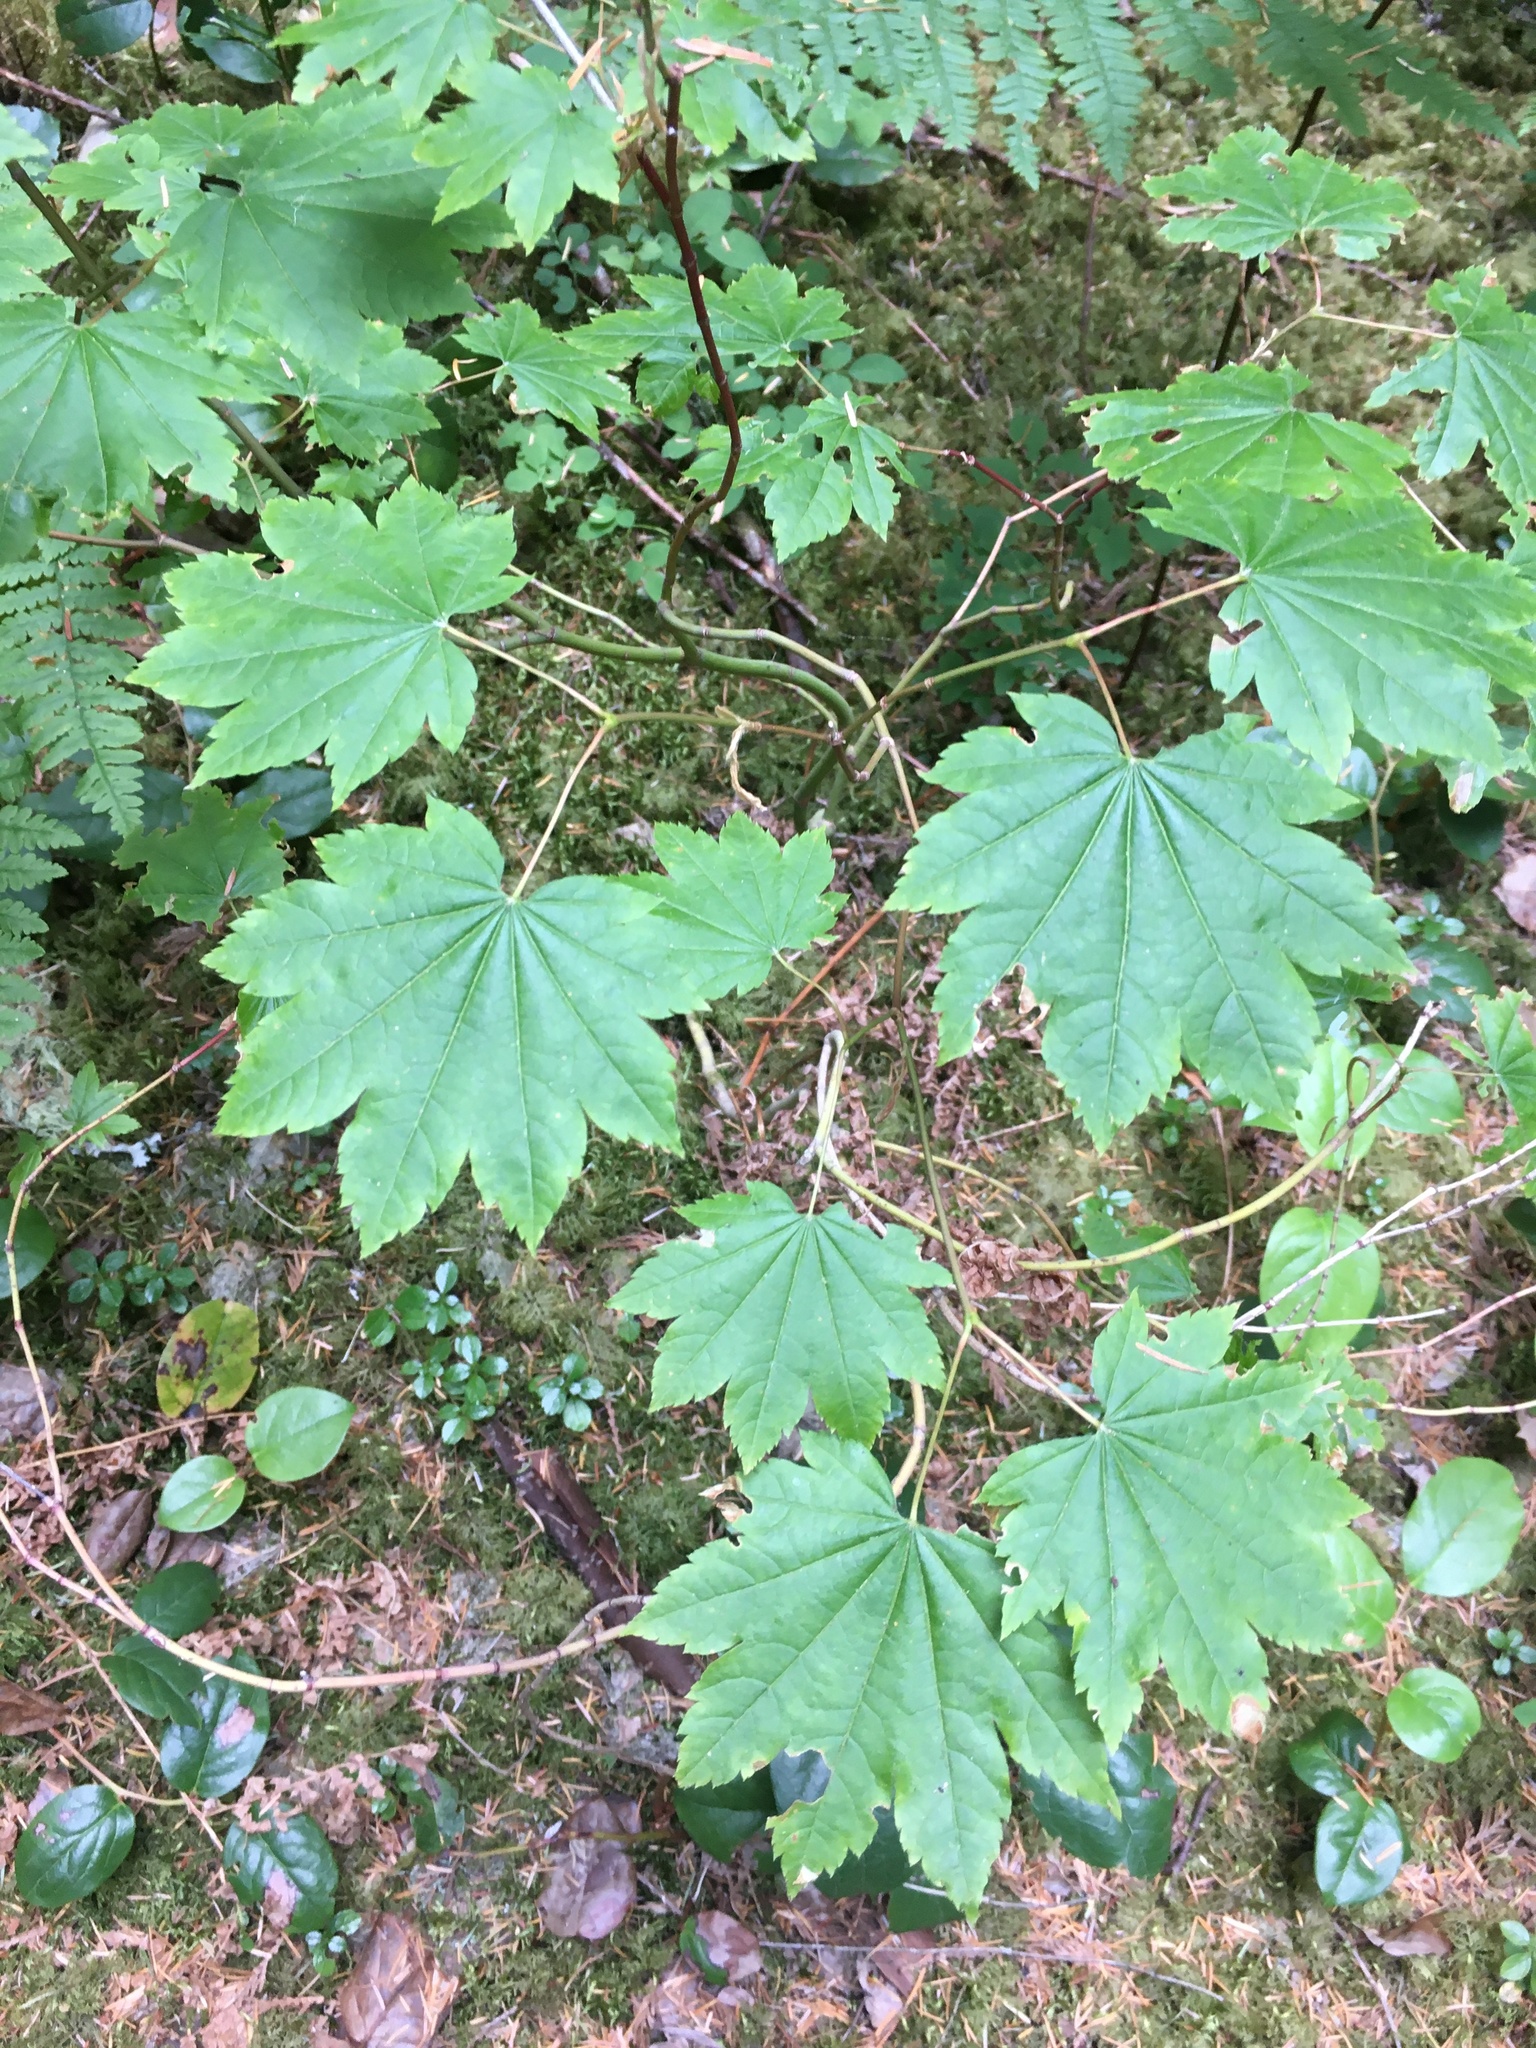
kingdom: Plantae
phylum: Tracheophyta
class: Magnoliopsida
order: Sapindales
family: Sapindaceae
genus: Acer
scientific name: Acer circinatum
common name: Vine maple
